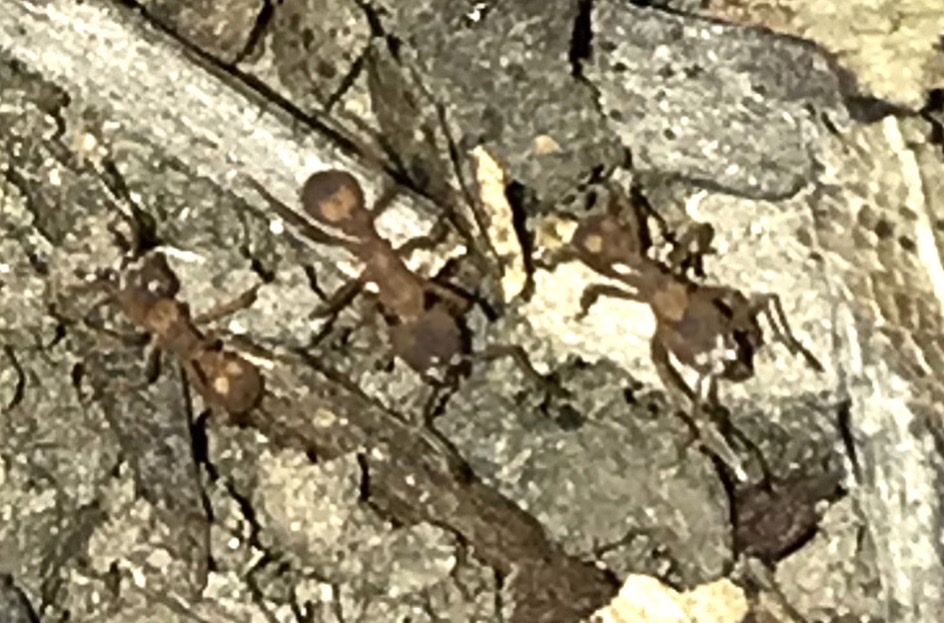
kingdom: Animalia
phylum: Arthropoda
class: Insecta
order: Hymenoptera
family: Formicidae
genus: Trachymyrmex
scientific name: Trachymyrmex septentrionalis
